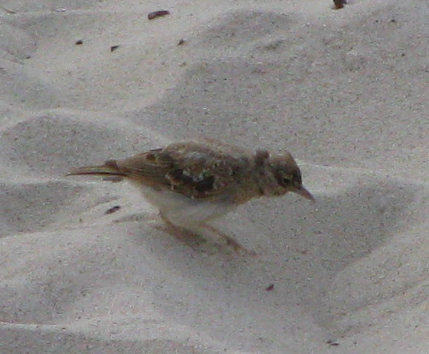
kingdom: Animalia
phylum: Chordata
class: Aves
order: Passeriformes
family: Alaudidae
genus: Galerida
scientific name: Galerida cristata
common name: Crested lark
